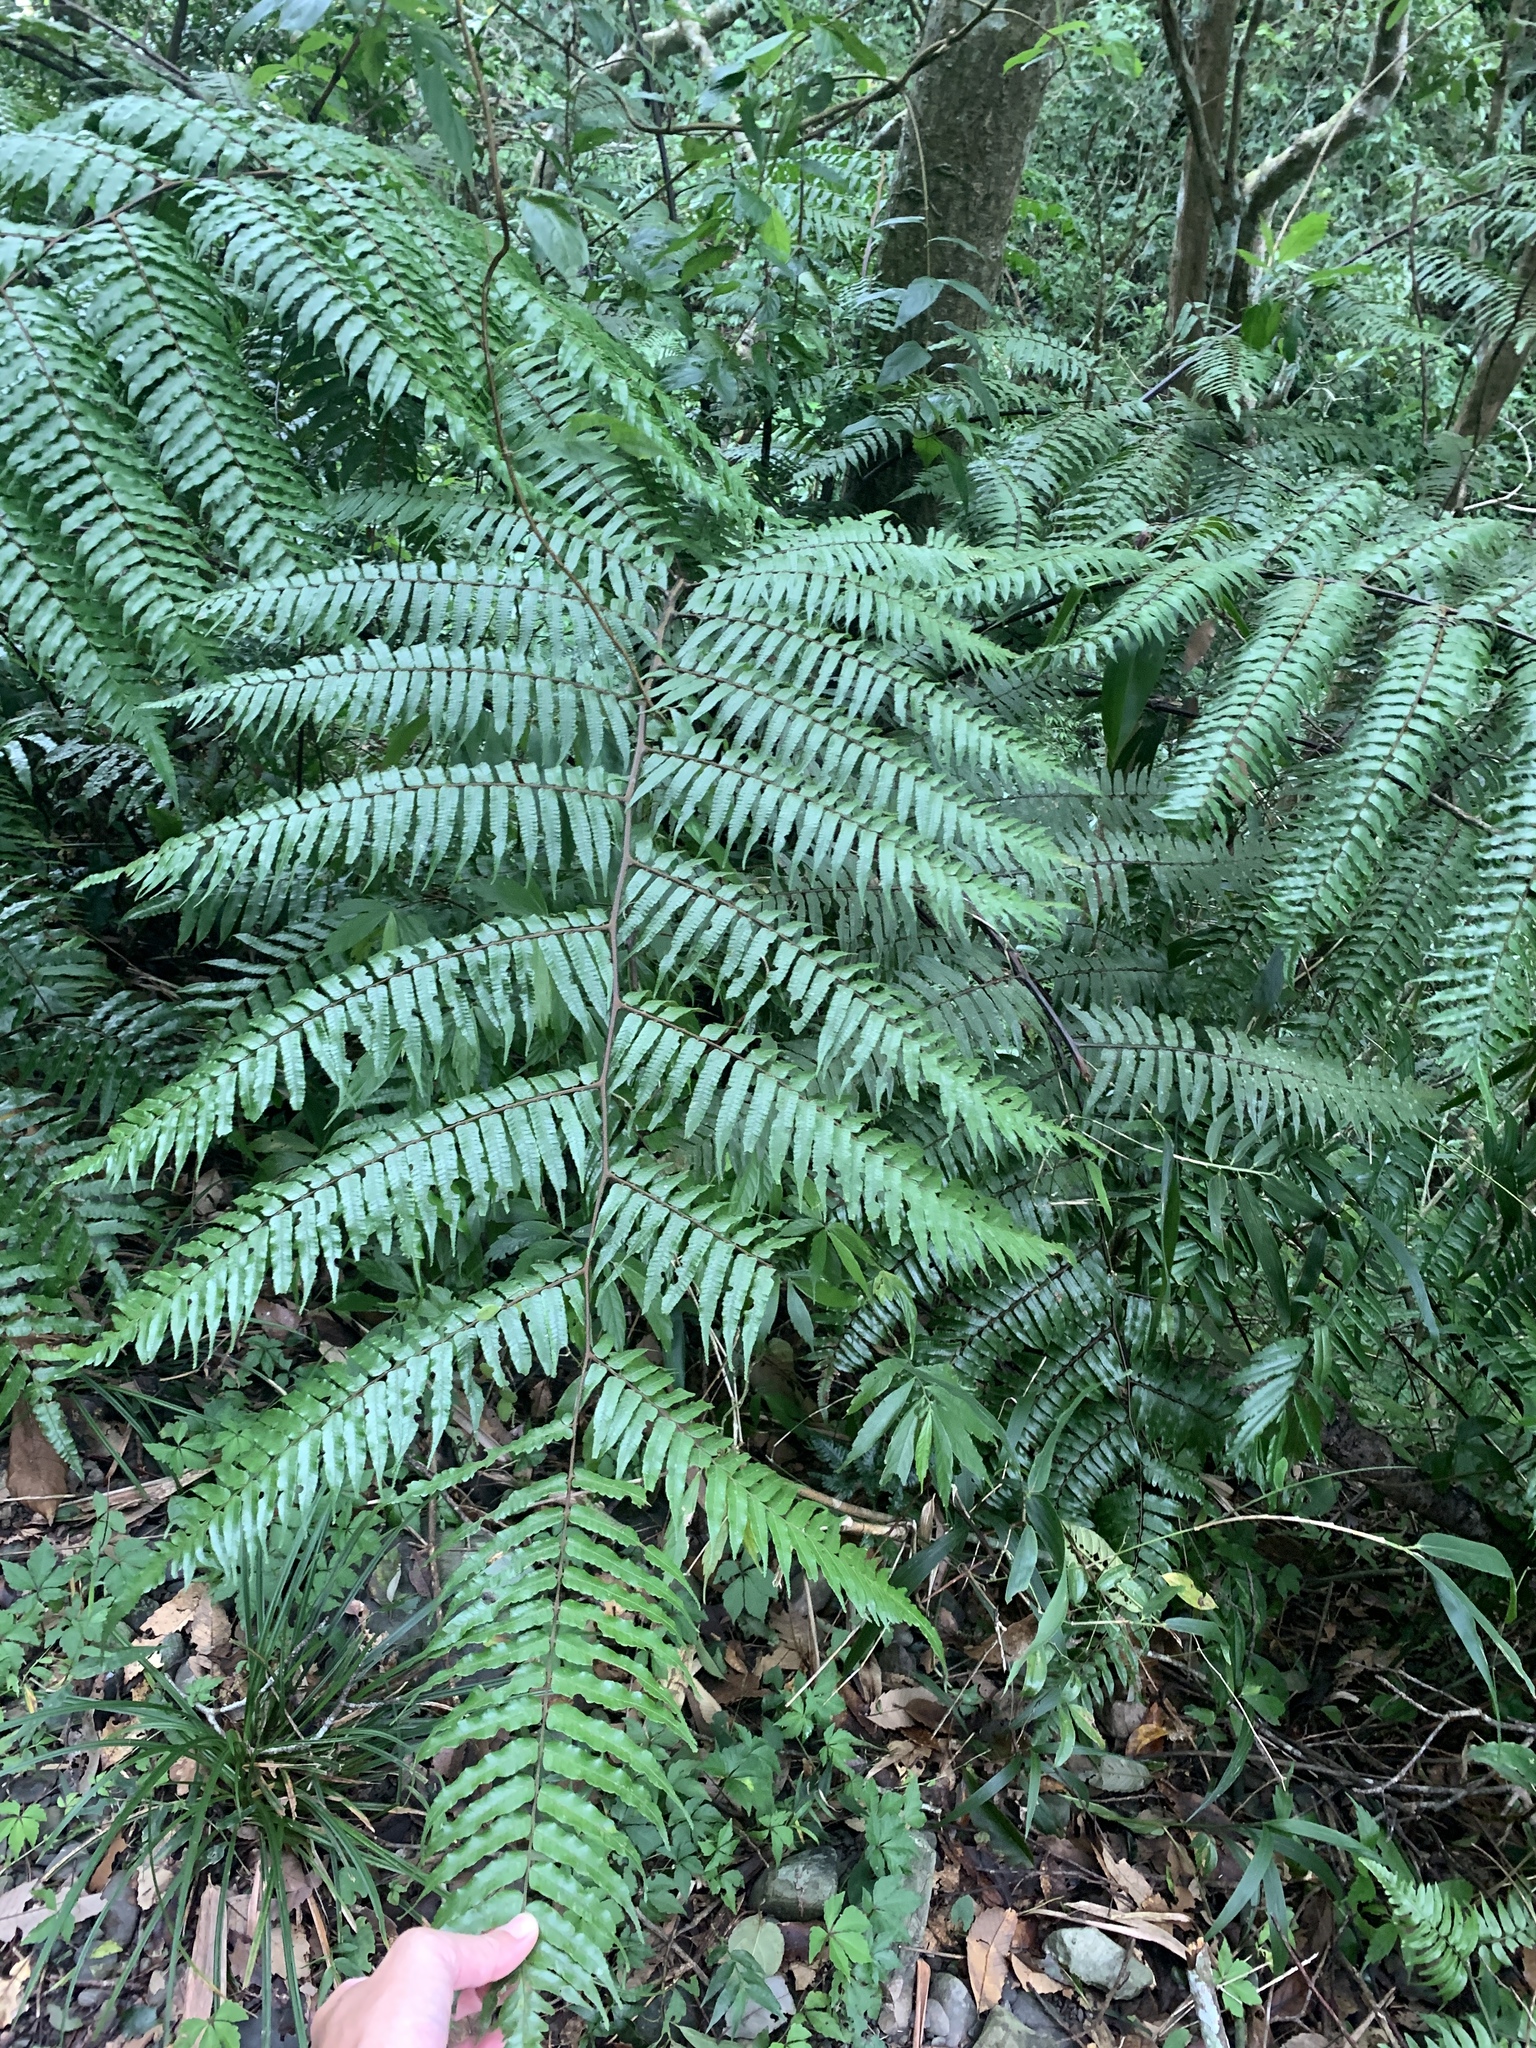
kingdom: Plantae
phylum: Tracheophyta
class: Polypodiopsida
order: Cyatheales
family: Cyatheaceae
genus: Gymnosphaera
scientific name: Gymnosphaera podophylla
